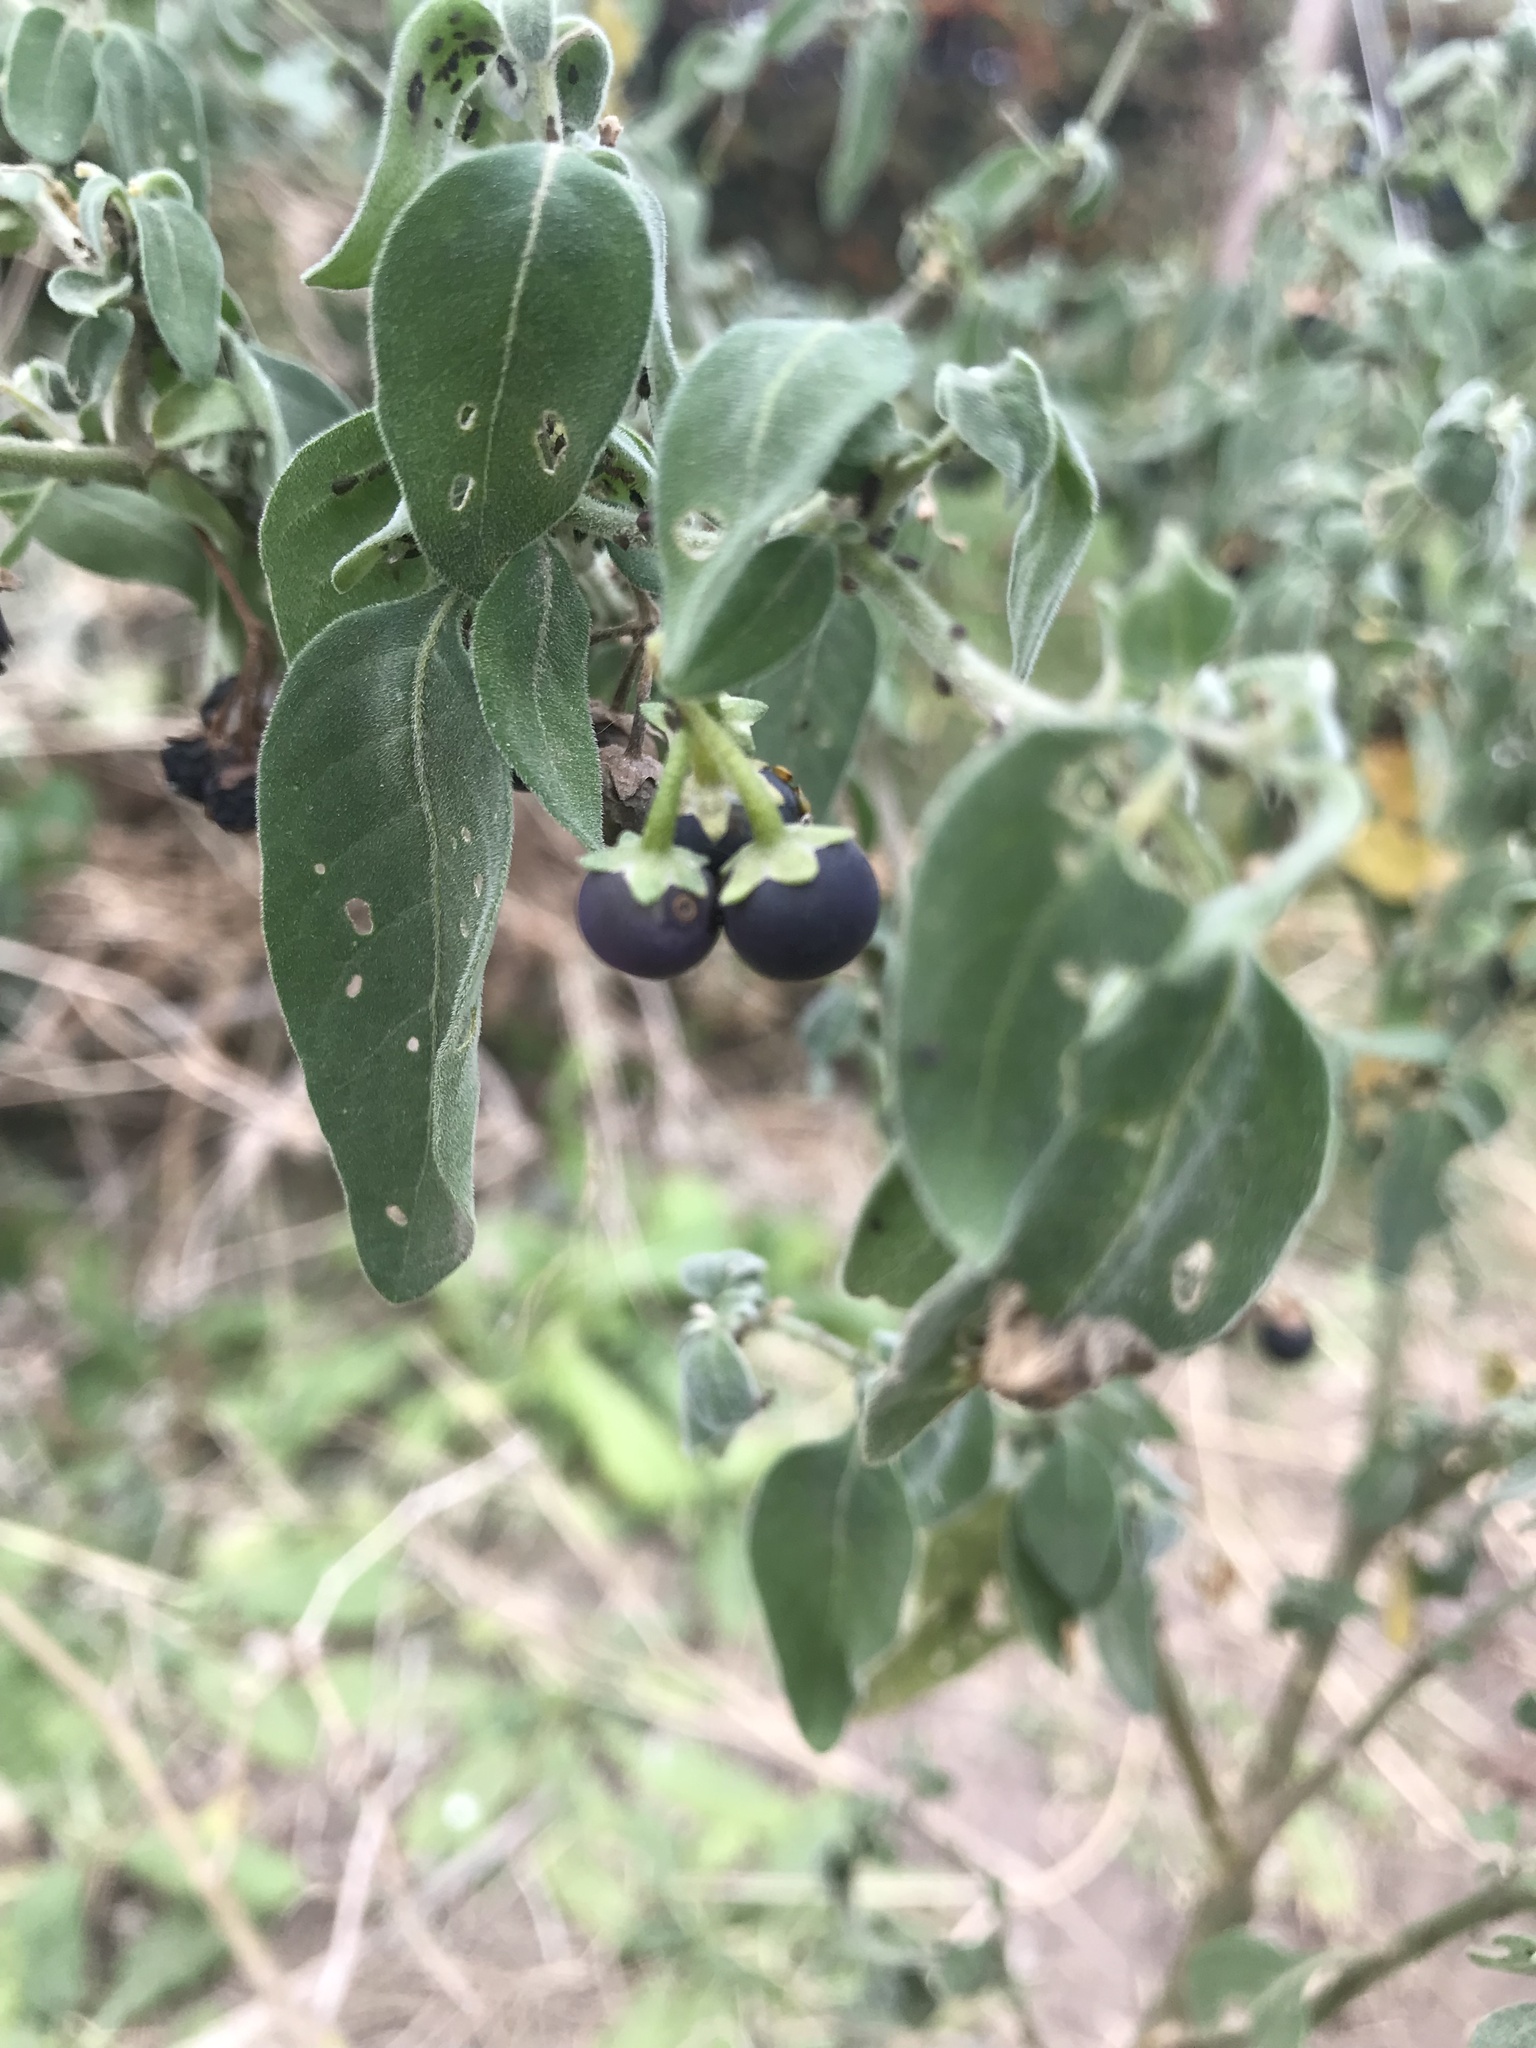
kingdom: Plantae
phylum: Tracheophyta
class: Magnoliopsida
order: Solanales
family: Solanaceae
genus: Solanum
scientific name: Solanum chenopodioides
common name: Tall nightshade
